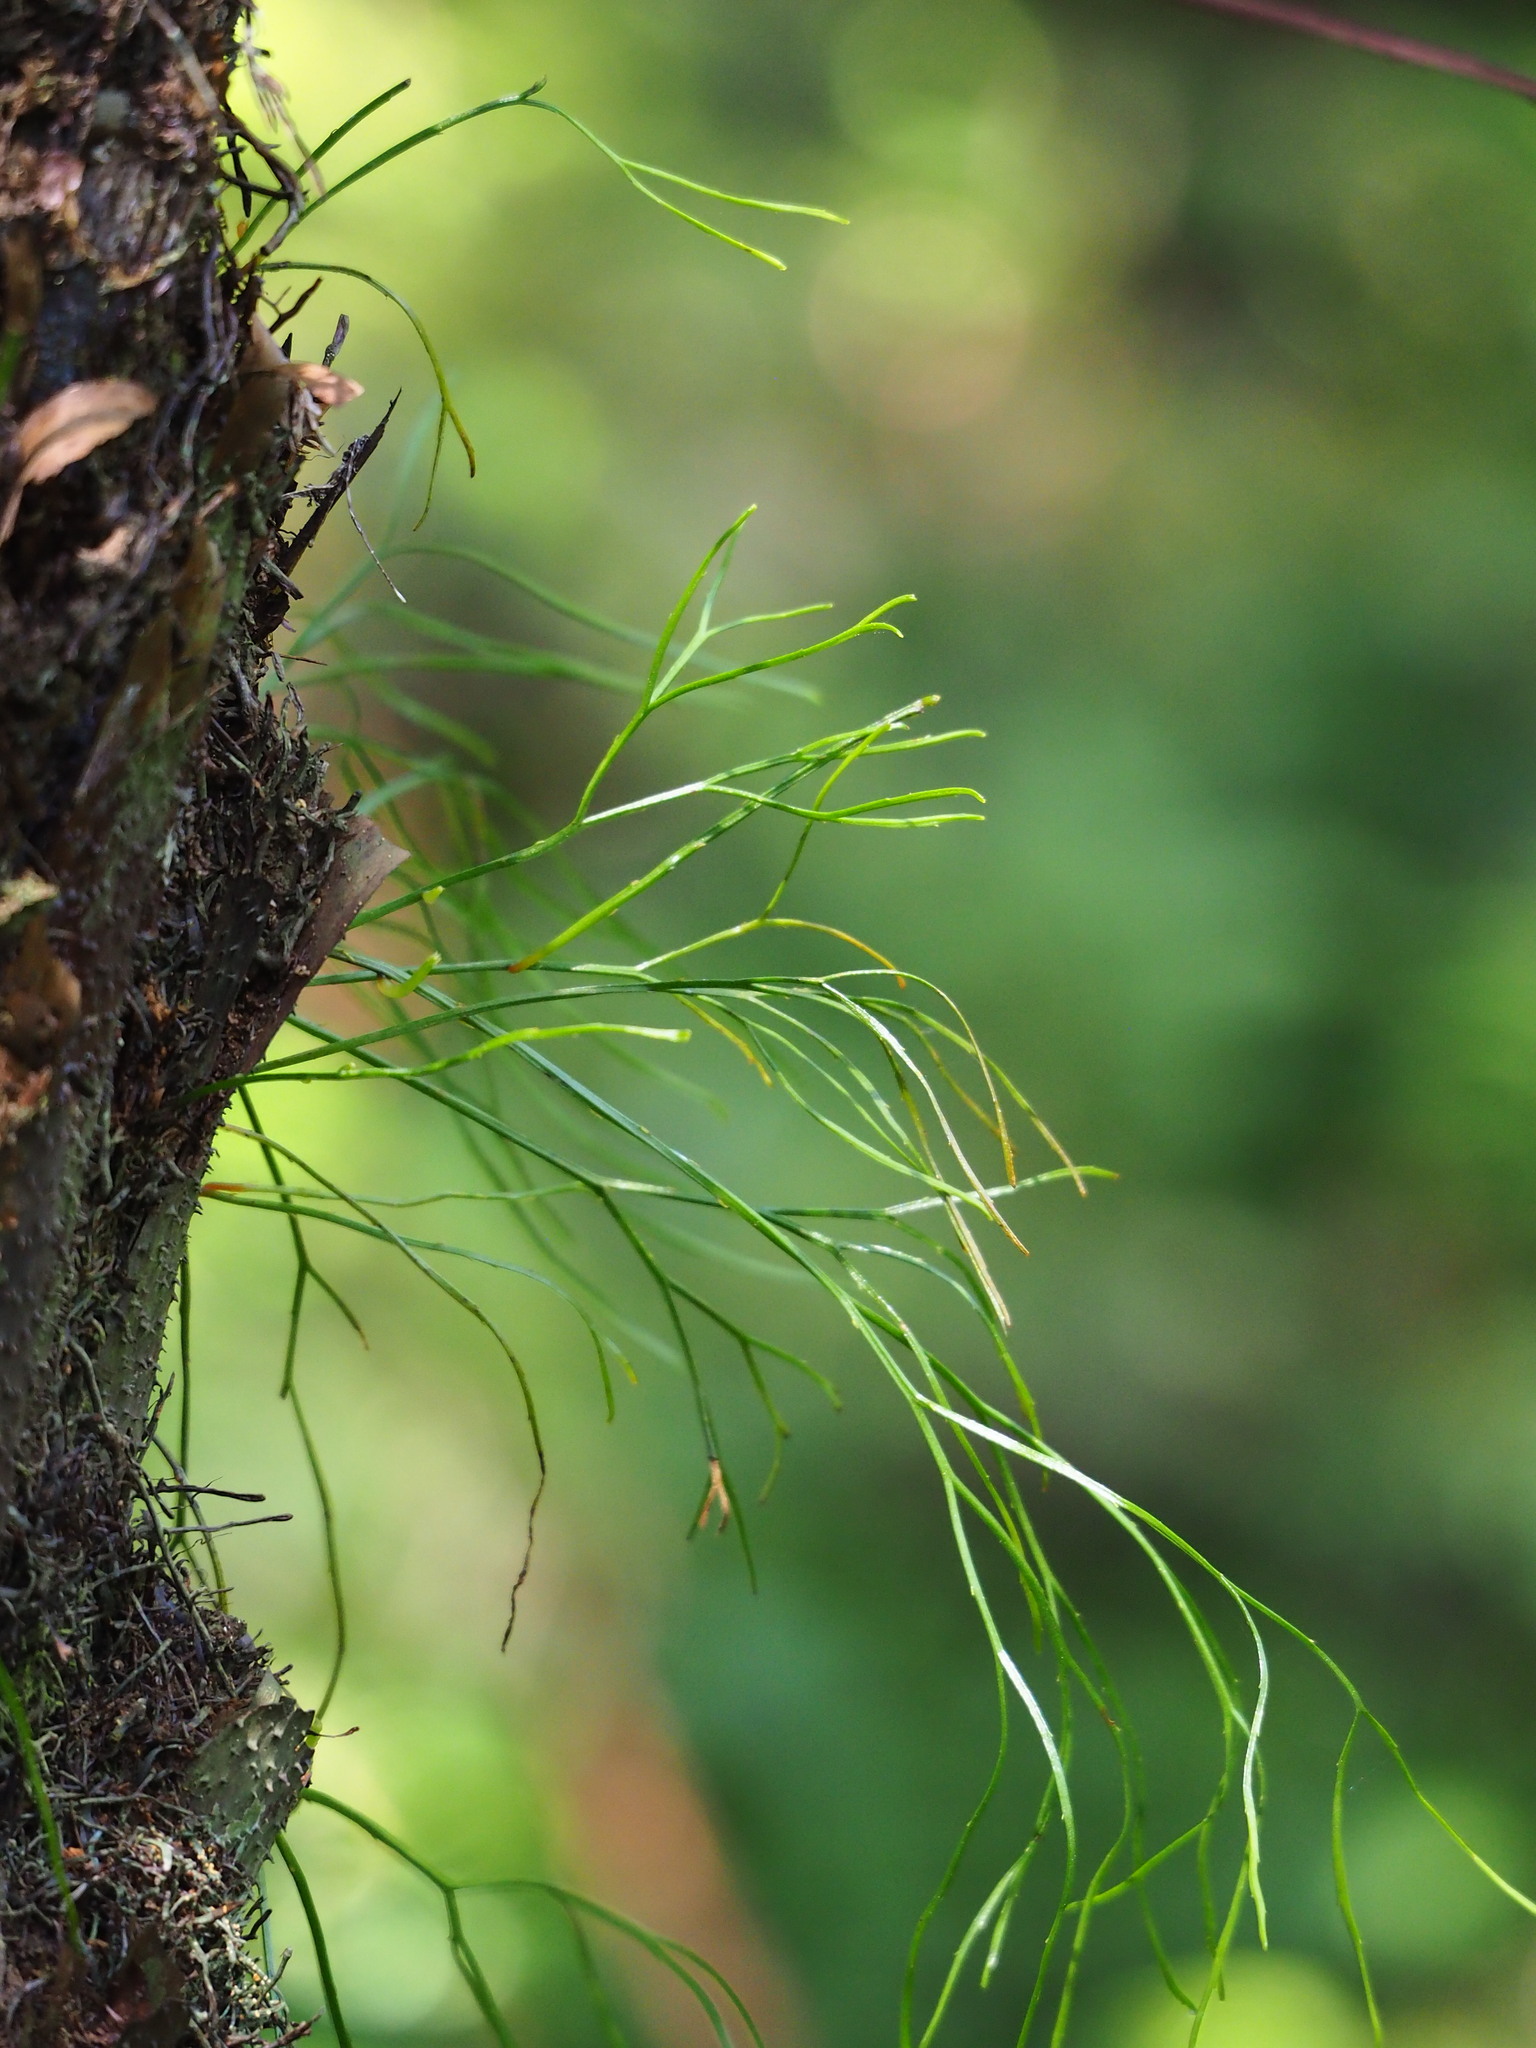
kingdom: Plantae
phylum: Tracheophyta
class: Polypodiopsida
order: Psilotales
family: Psilotaceae
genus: Psilotum
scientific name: Psilotum nudum
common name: Skeleton fork fern
